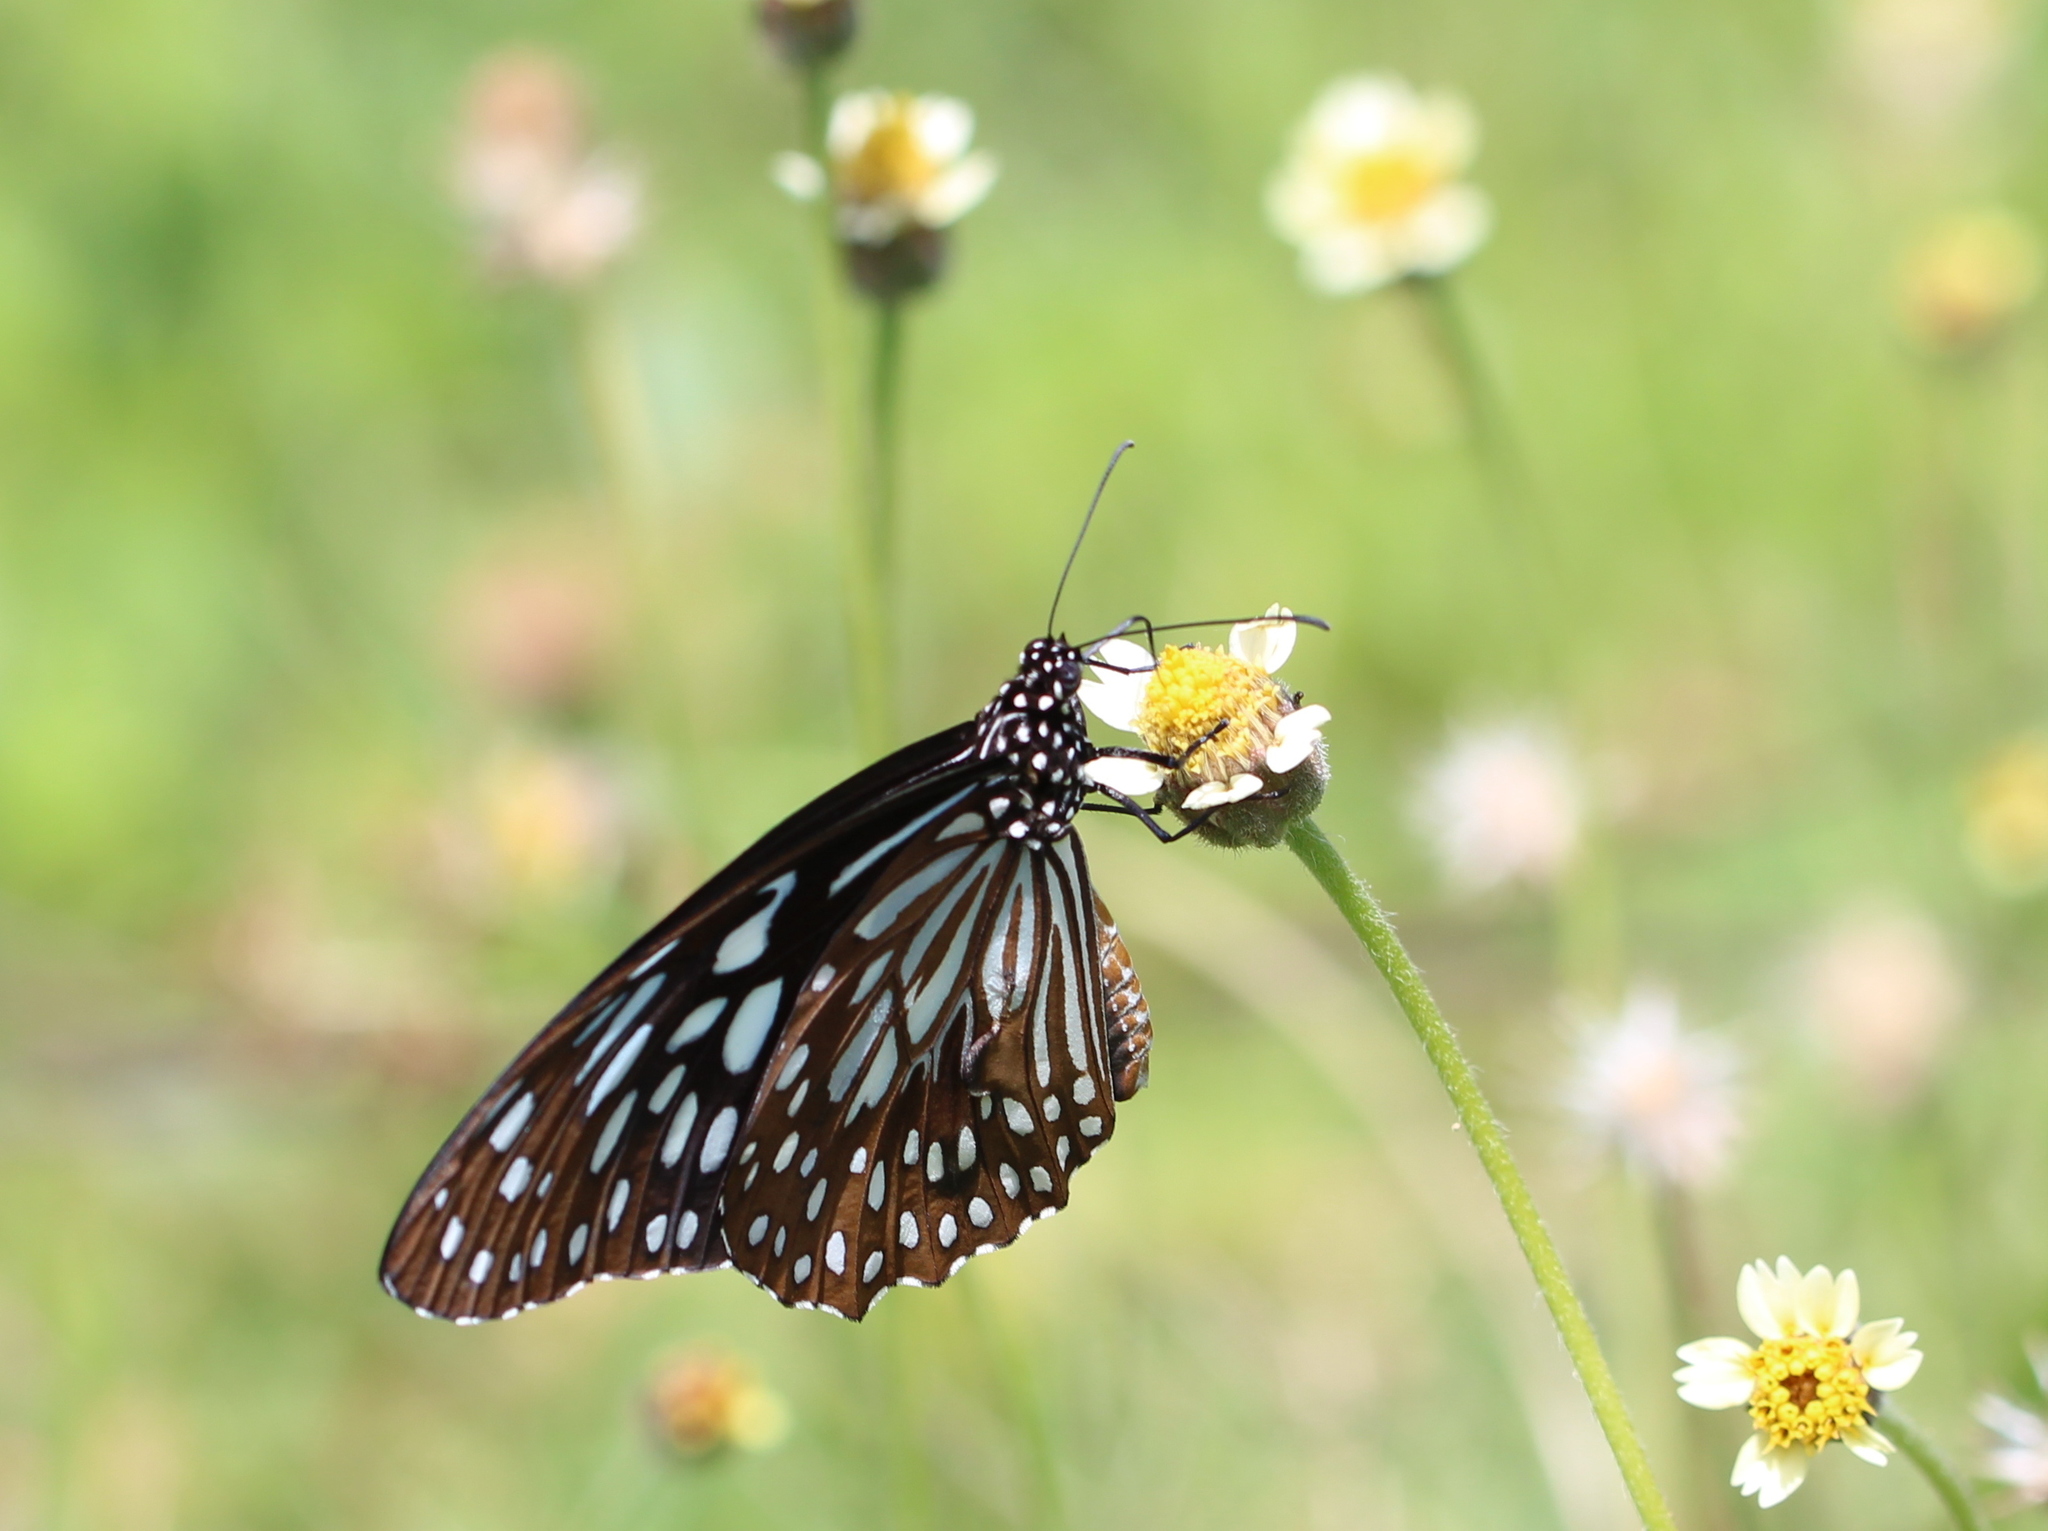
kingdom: Animalia
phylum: Arthropoda
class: Insecta
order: Lepidoptera
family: Nymphalidae
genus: Tirumala
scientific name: Tirumala septentrionis
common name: Dark blue tiger butterfly
